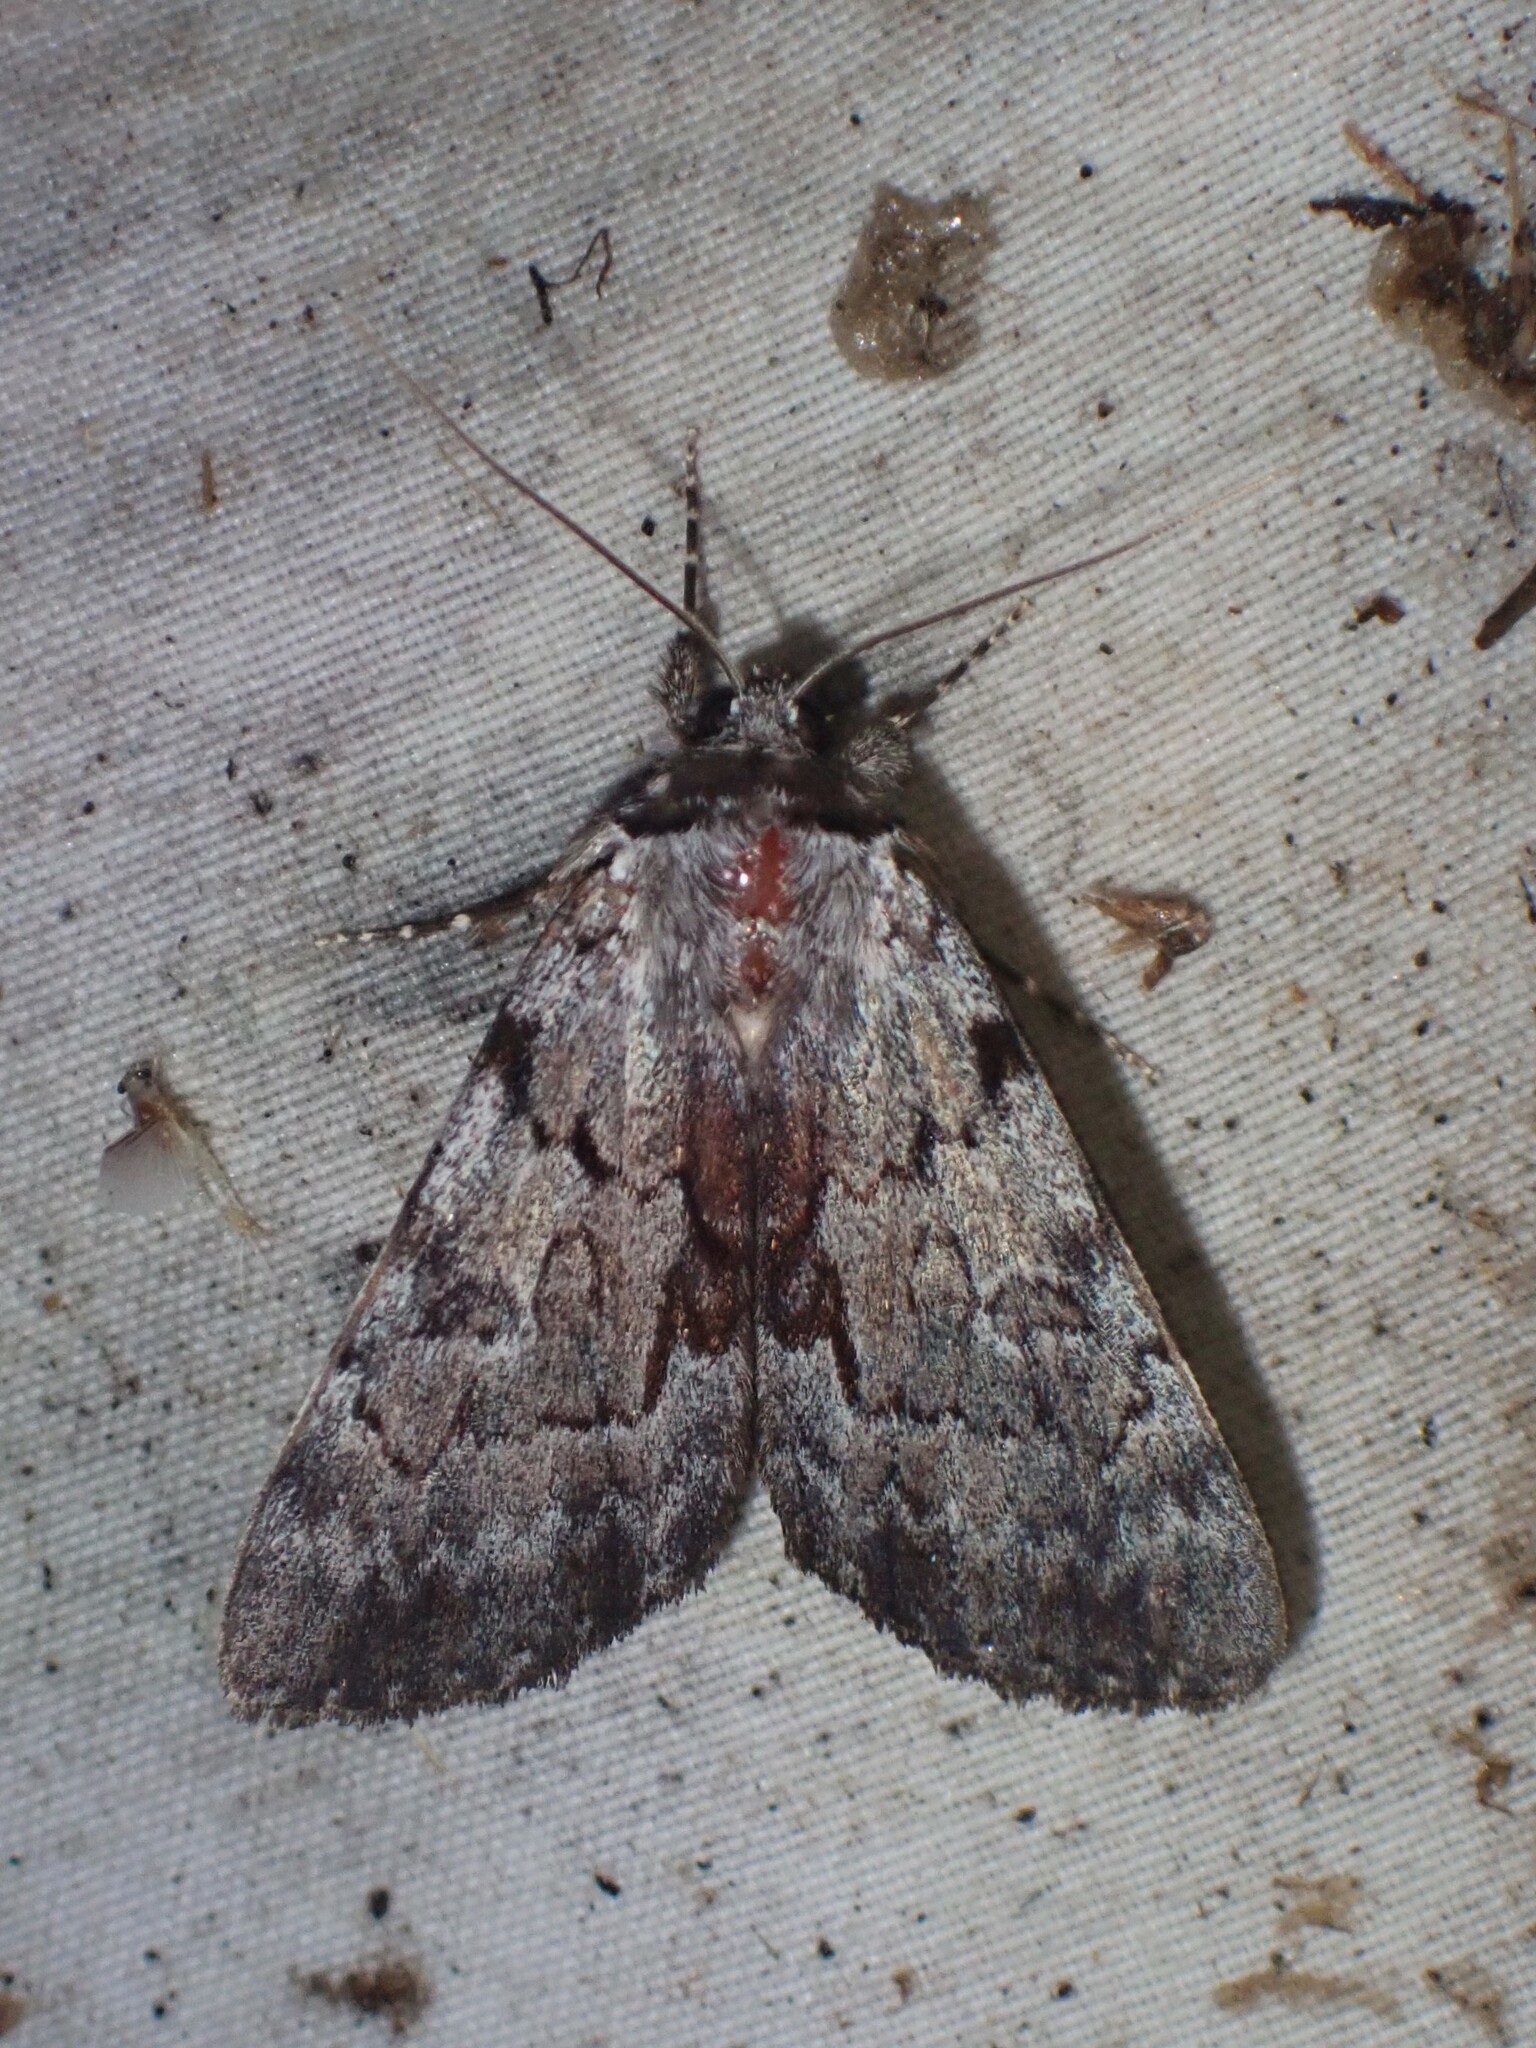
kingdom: Animalia
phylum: Arthropoda
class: Insecta
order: Lepidoptera
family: Erebidae
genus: Catocala
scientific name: Catocala sordida
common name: Sordid underwing
